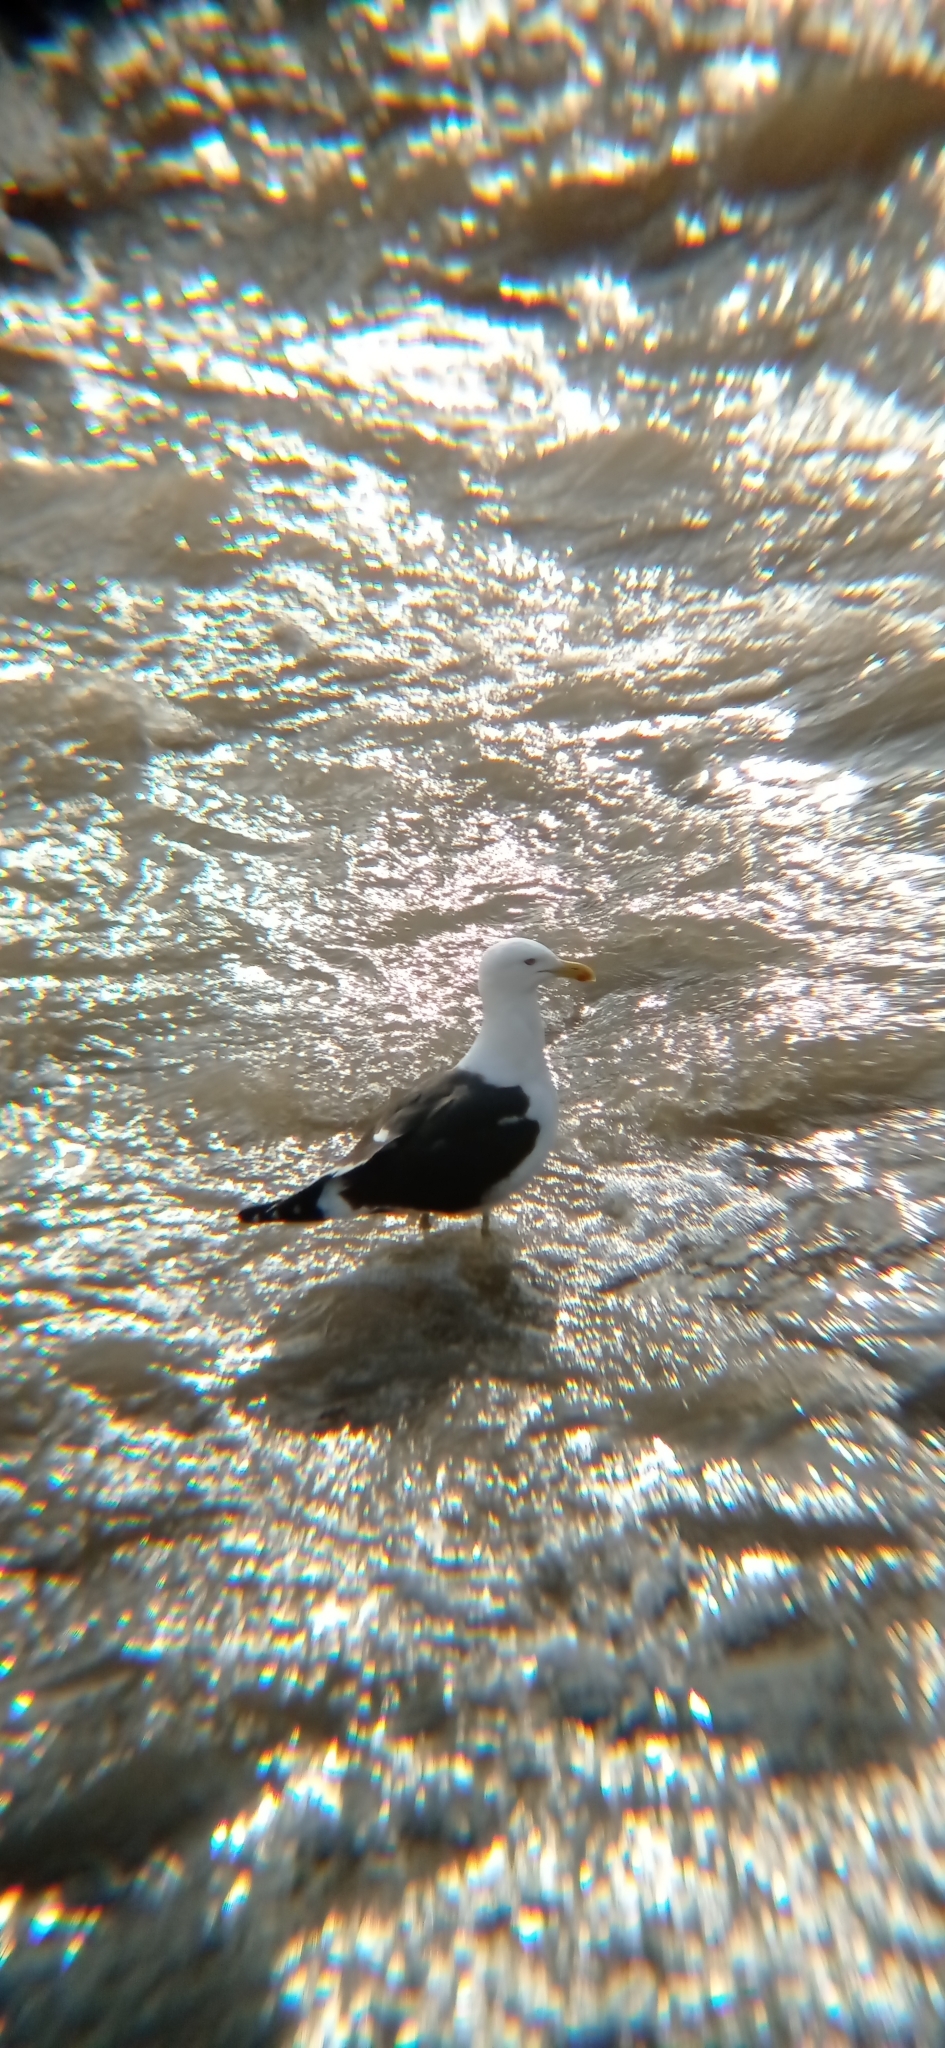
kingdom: Animalia
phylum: Chordata
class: Aves
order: Charadriiformes
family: Laridae
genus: Larus
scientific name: Larus dominicanus
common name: Kelp gull
